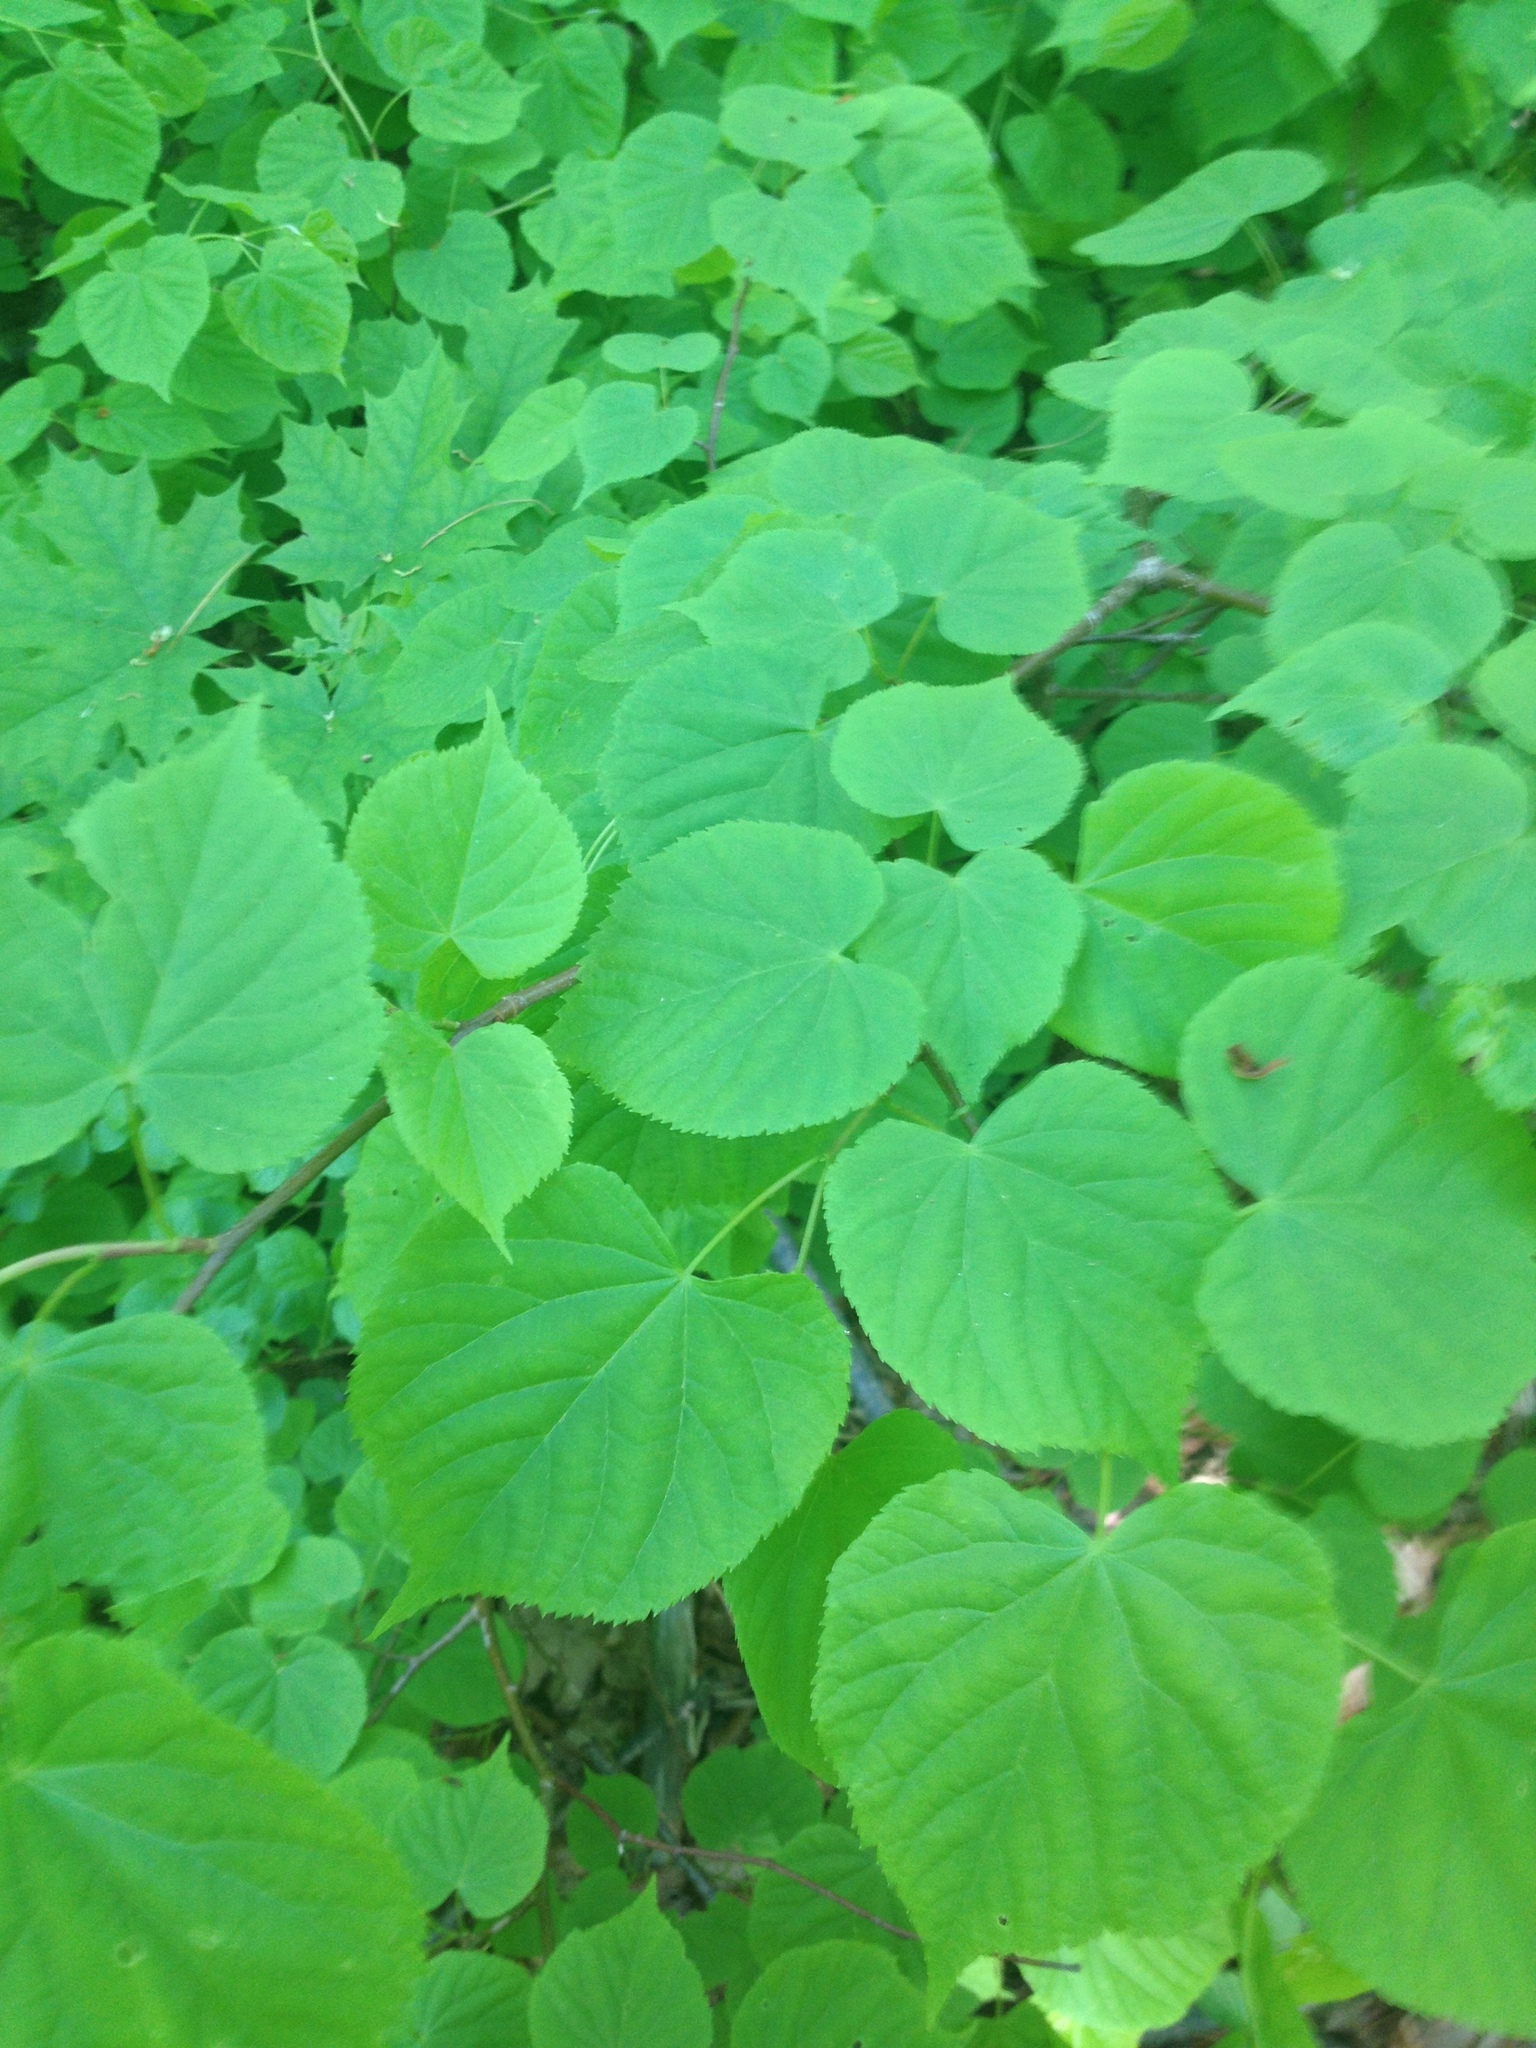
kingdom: Plantae
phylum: Tracheophyta
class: Magnoliopsida
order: Malvales
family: Malvaceae
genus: Tilia
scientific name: Tilia americana
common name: Basswood
